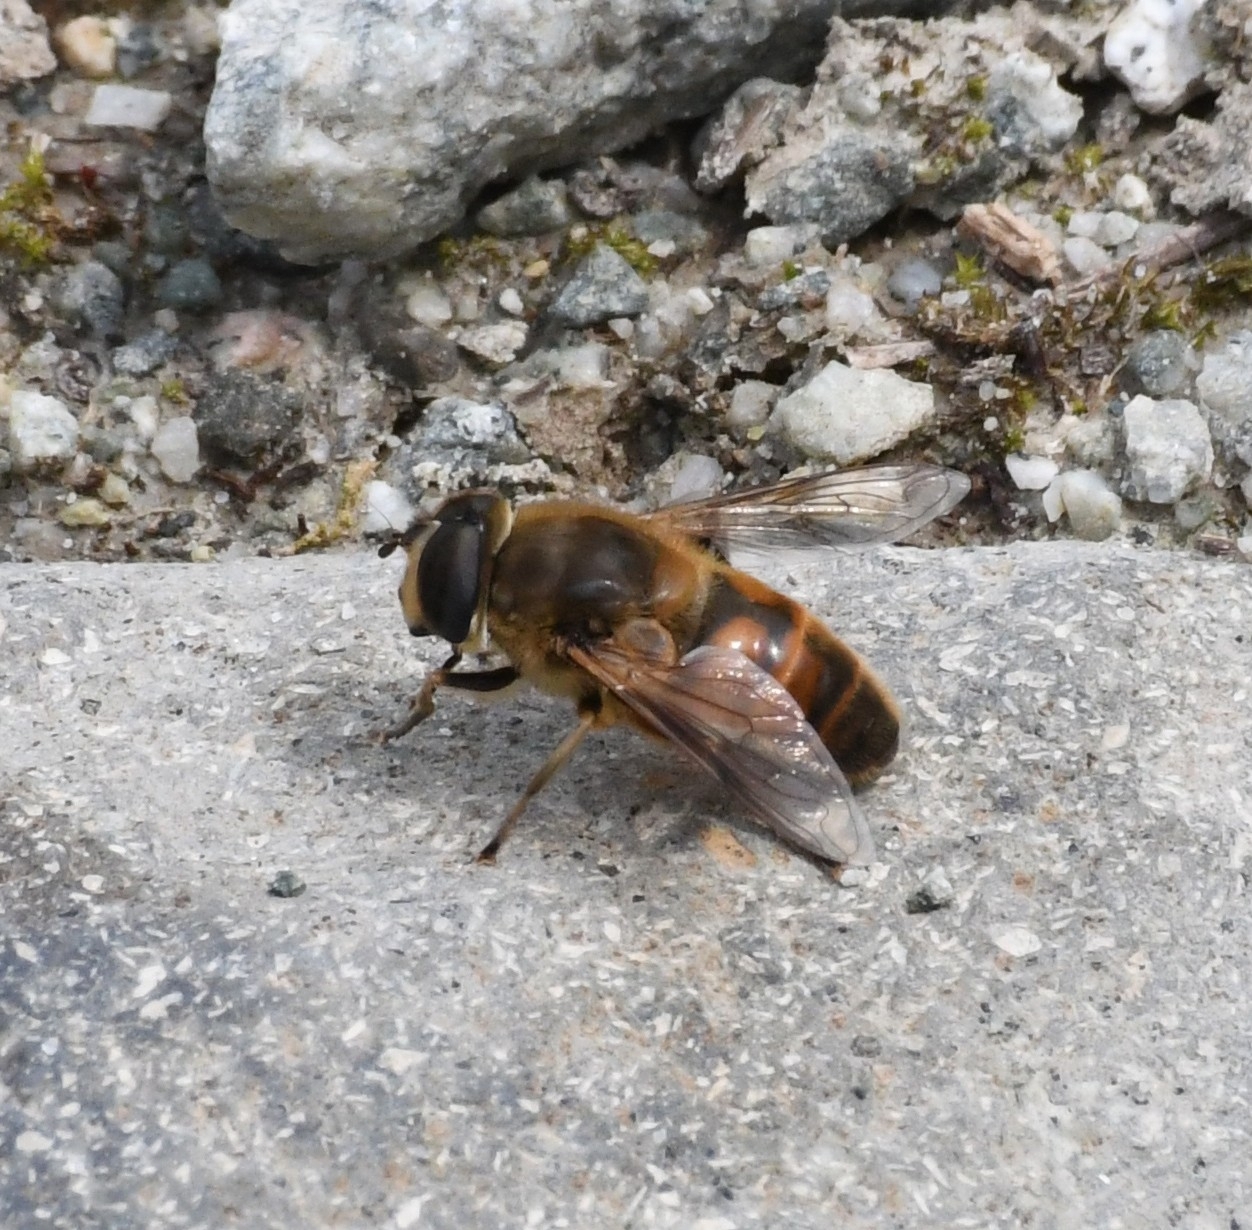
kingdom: Animalia
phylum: Arthropoda
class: Insecta
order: Diptera
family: Syrphidae
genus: Eristalis
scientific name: Eristalis tenax
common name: Drone fly
